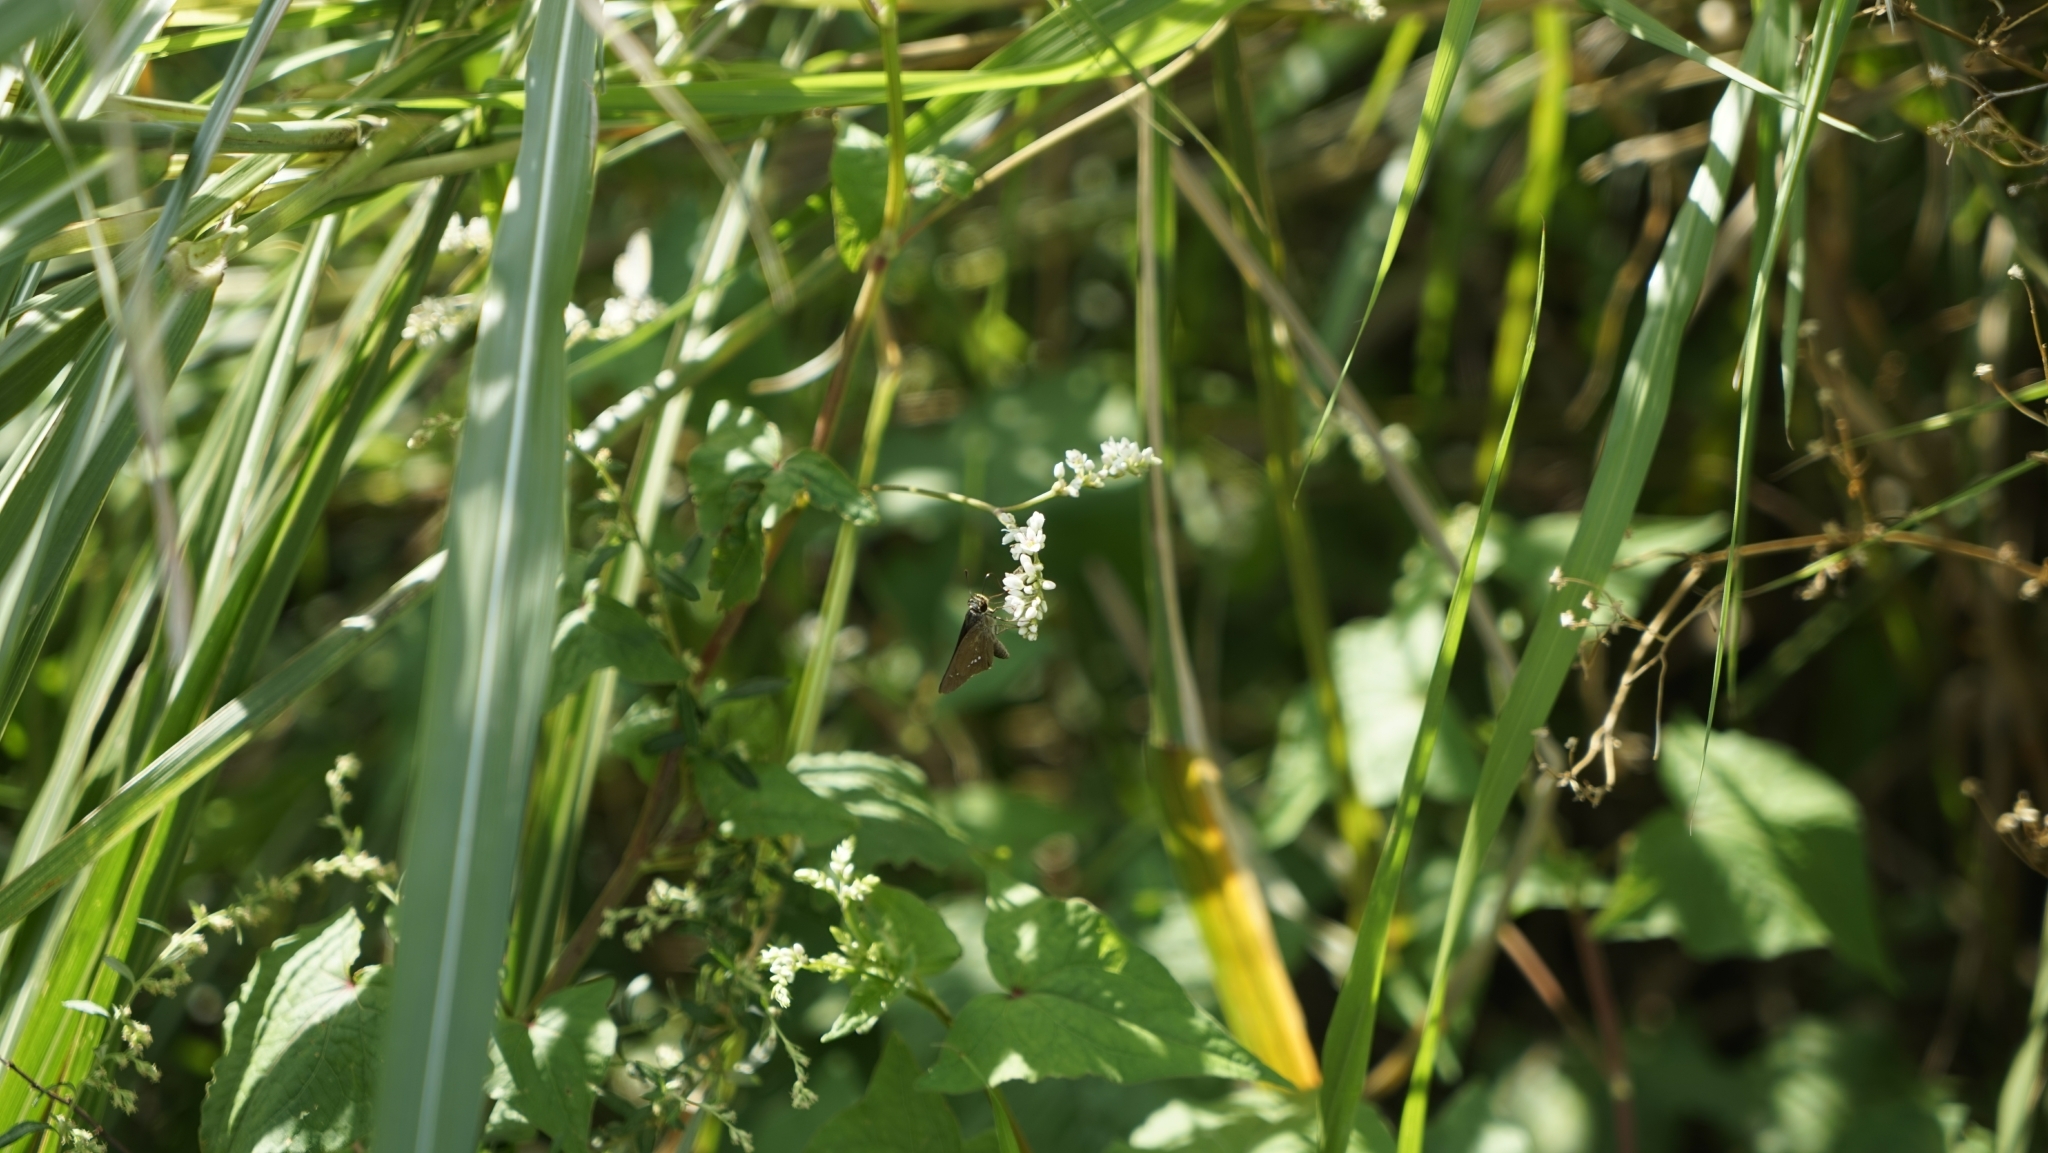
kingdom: Animalia
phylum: Arthropoda
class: Insecta
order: Lepidoptera
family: Hesperiidae
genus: Parnara
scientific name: Parnara guttatus
